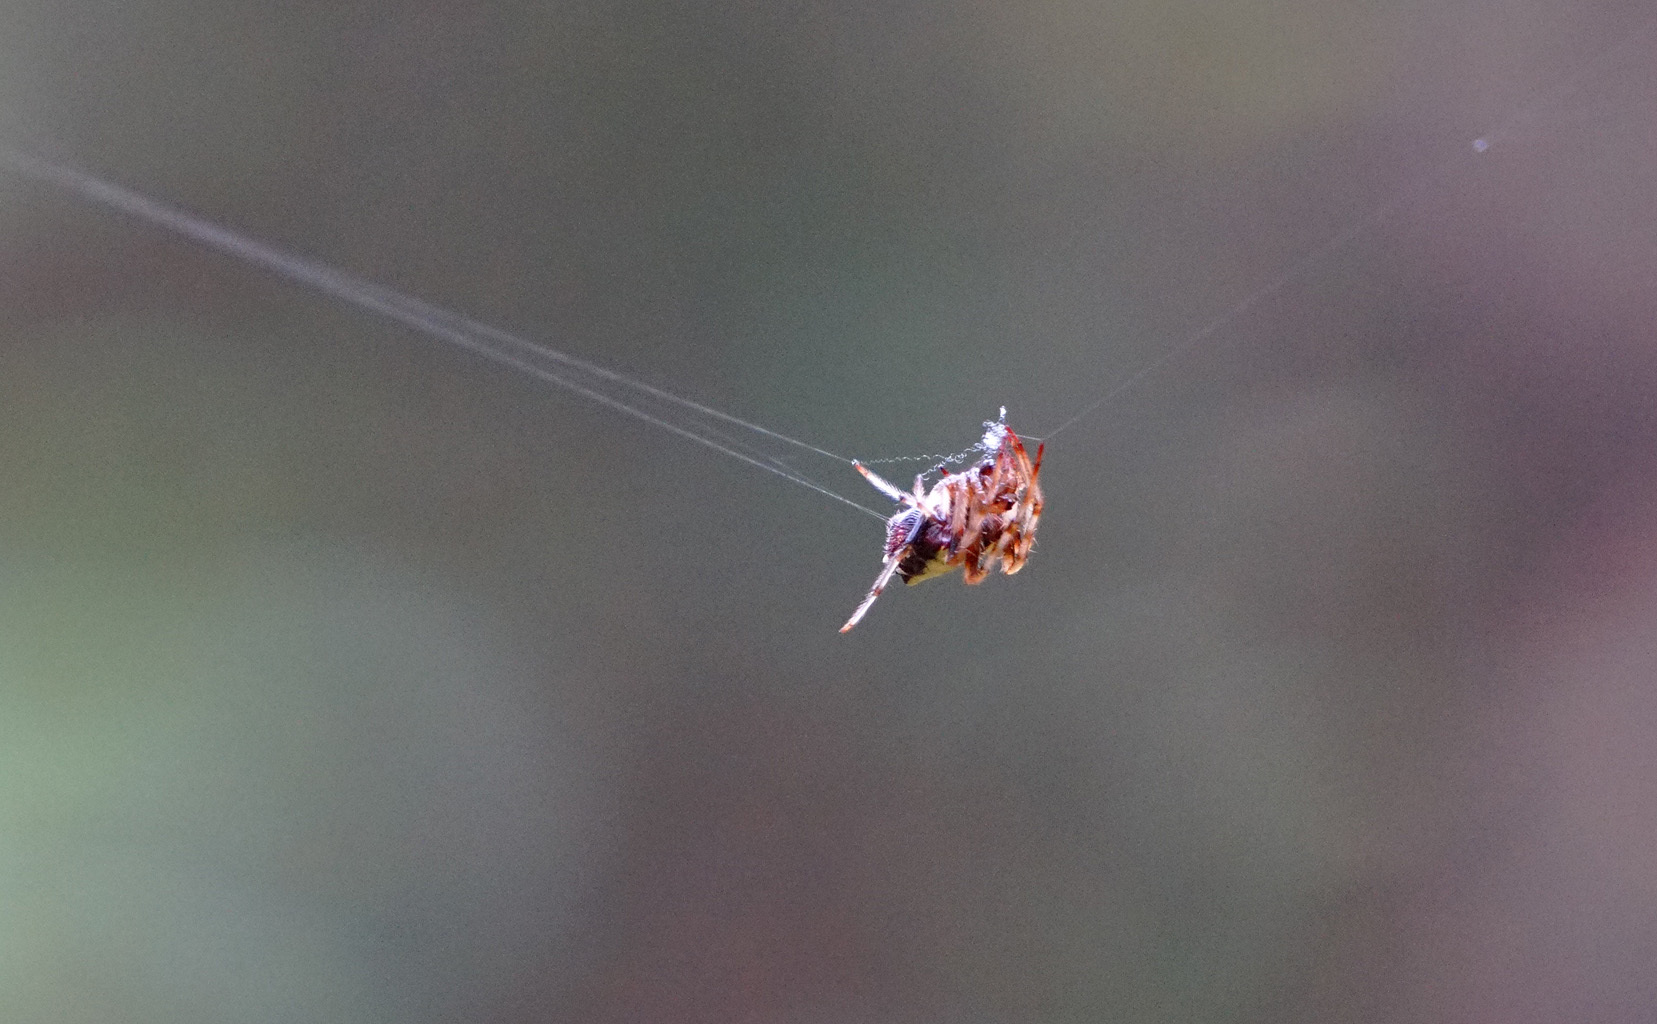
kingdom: Animalia
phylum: Arthropoda
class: Arachnida
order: Araneae
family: Araneidae
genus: Verrucosa
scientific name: Verrucosa arenata
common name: Orb weavers
